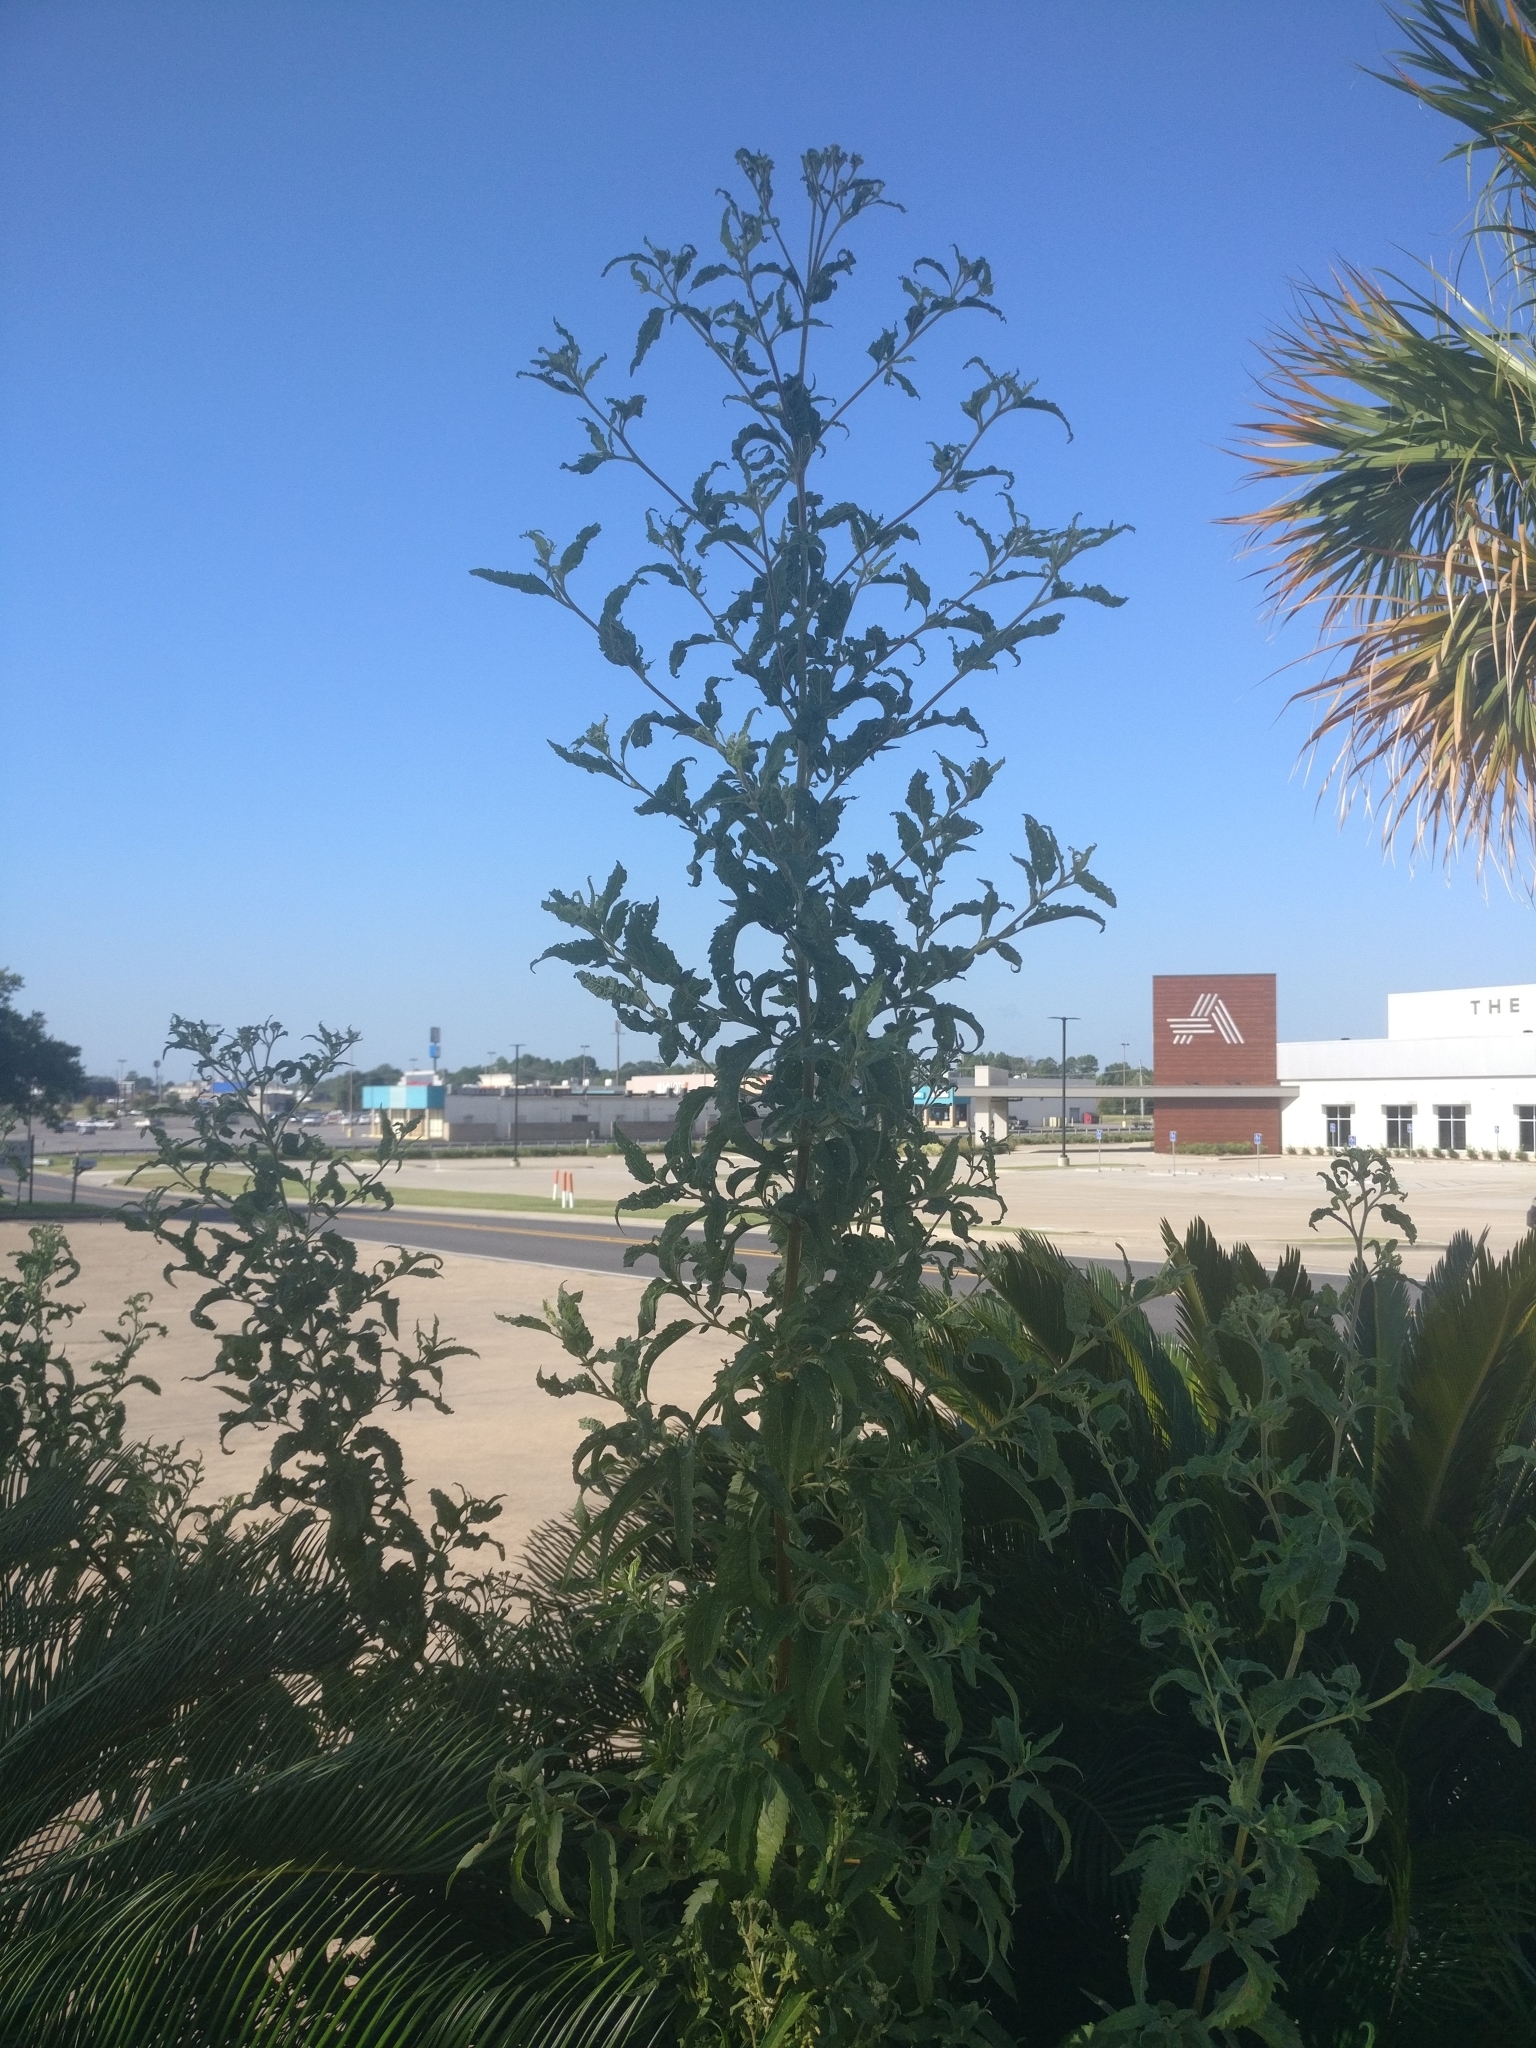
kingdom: Plantae
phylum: Tracheophyta
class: Magnoliopsida
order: Asterales
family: Asteraceae
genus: Eupatorium
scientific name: Eupatorium serotinum
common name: Late boneset
